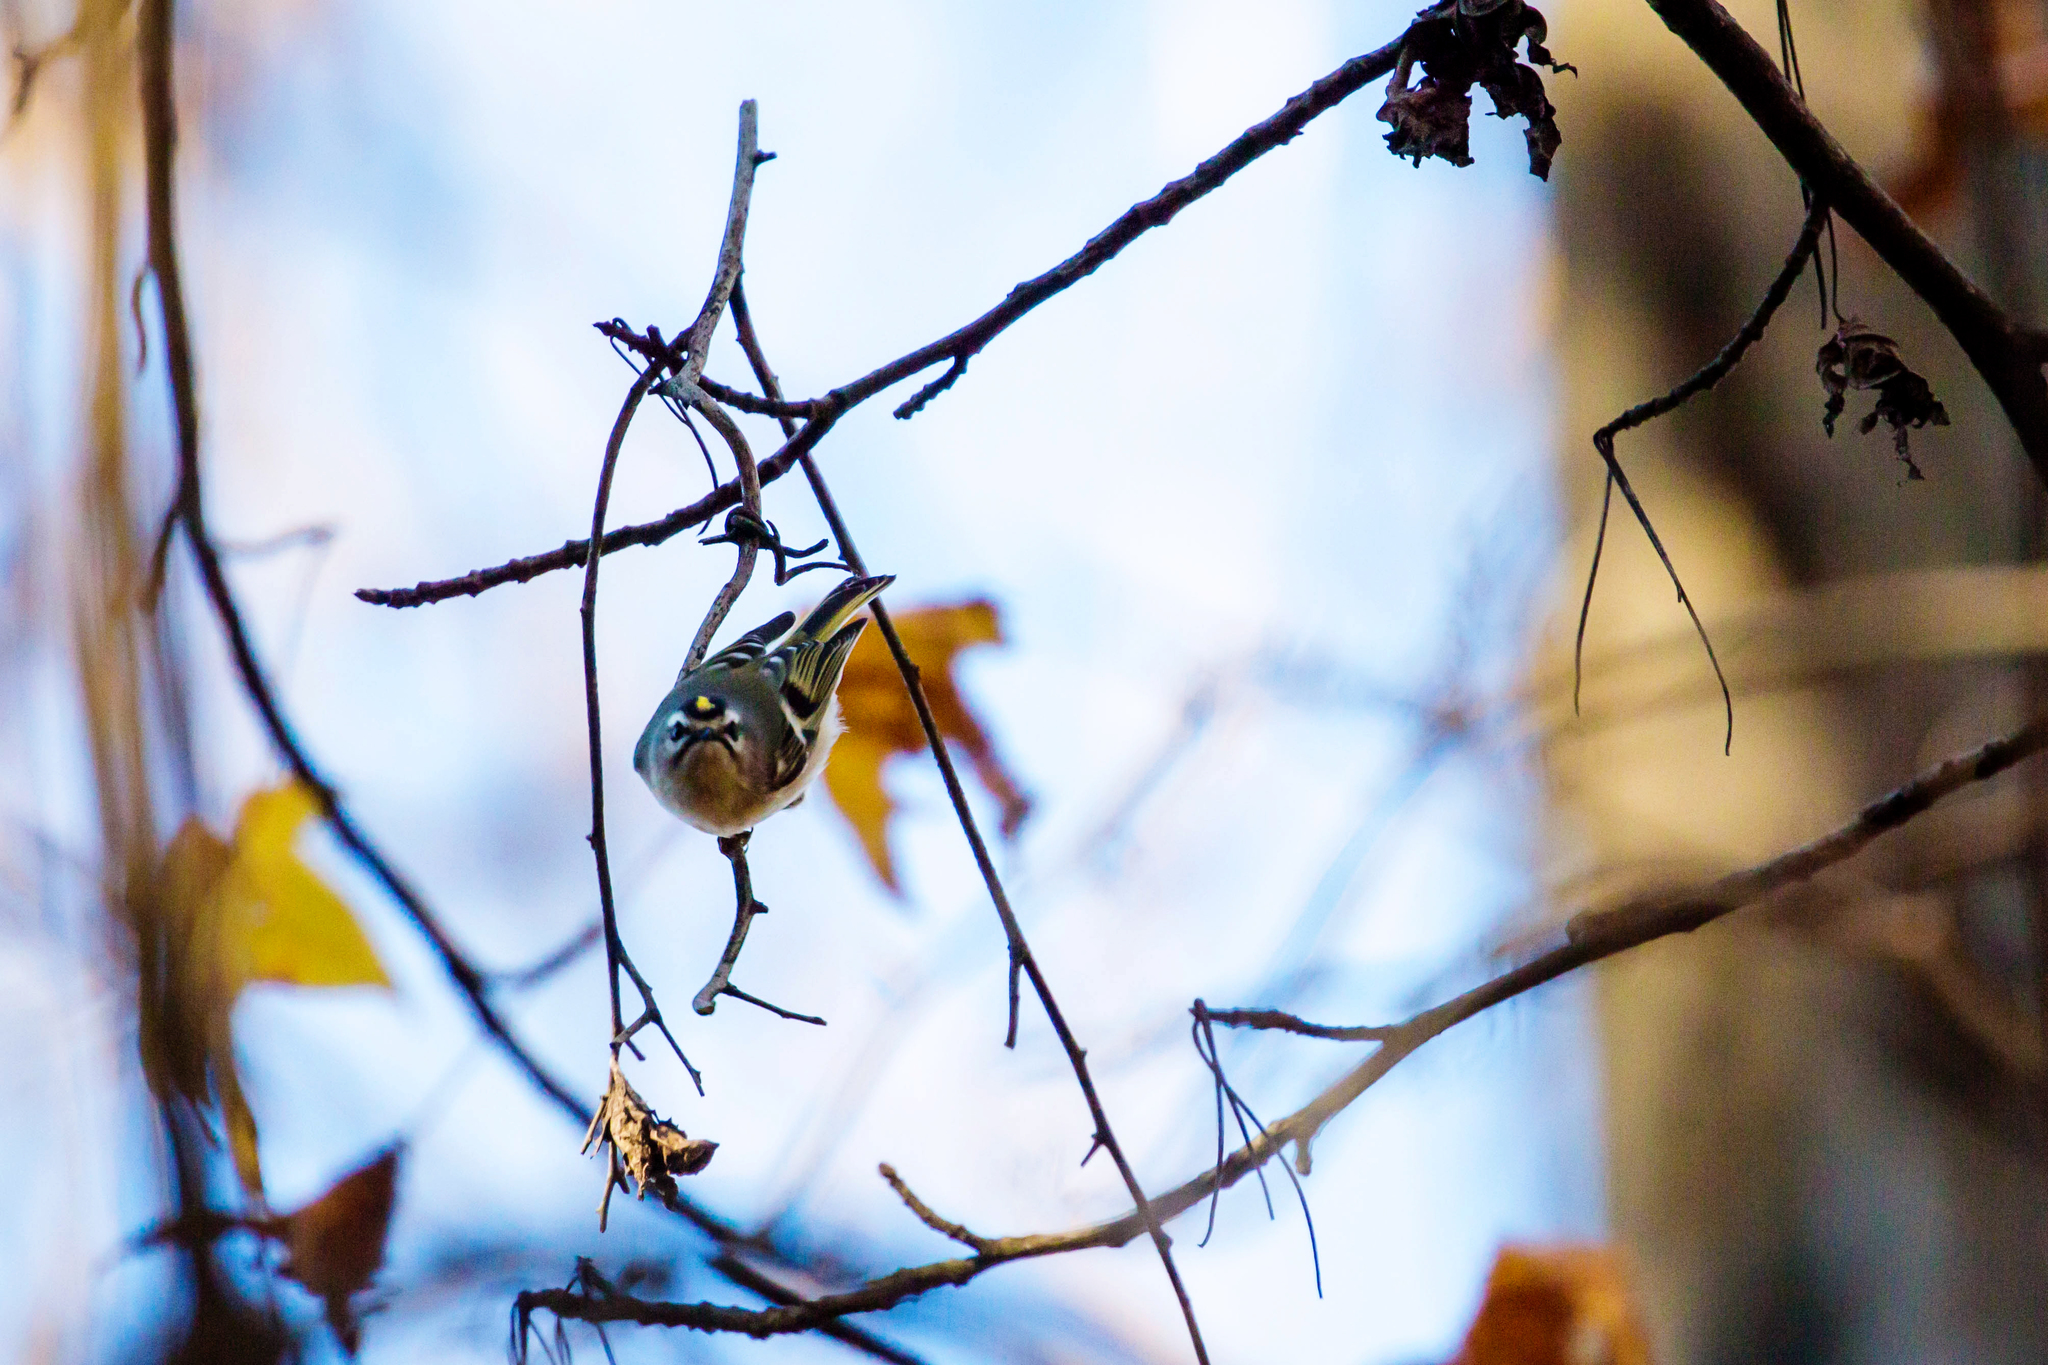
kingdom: Animalia
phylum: Chordata
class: Aves
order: Passeriformes
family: Regulidae
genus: Regulus
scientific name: Regulus satrapa
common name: Golden-crowned kinglet
